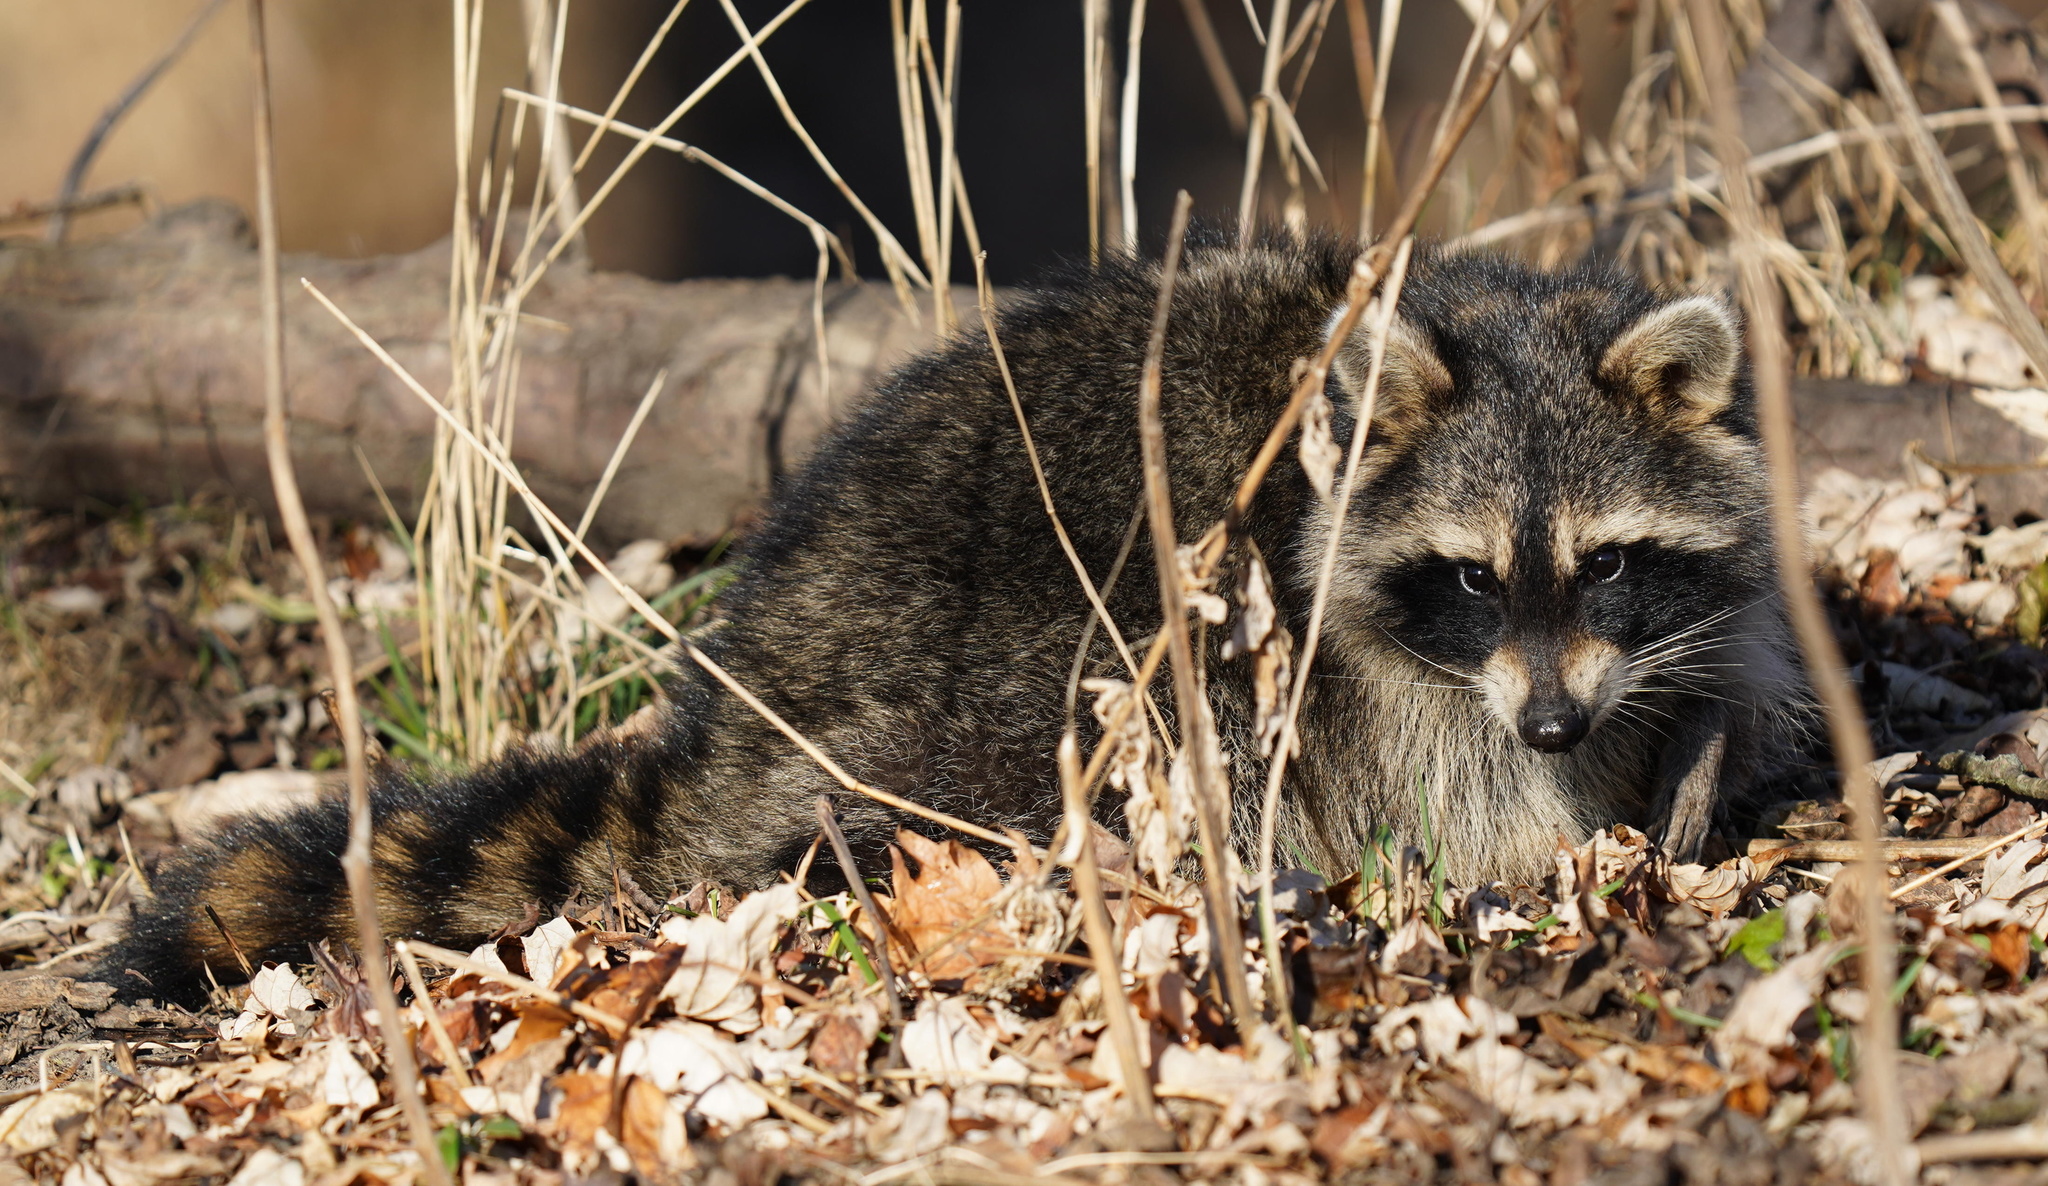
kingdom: Animalia
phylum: Chordata
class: Mammalia
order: Carnivora
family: Procyonidae
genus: Procyon
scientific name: Procyon lotor
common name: Raccoon
